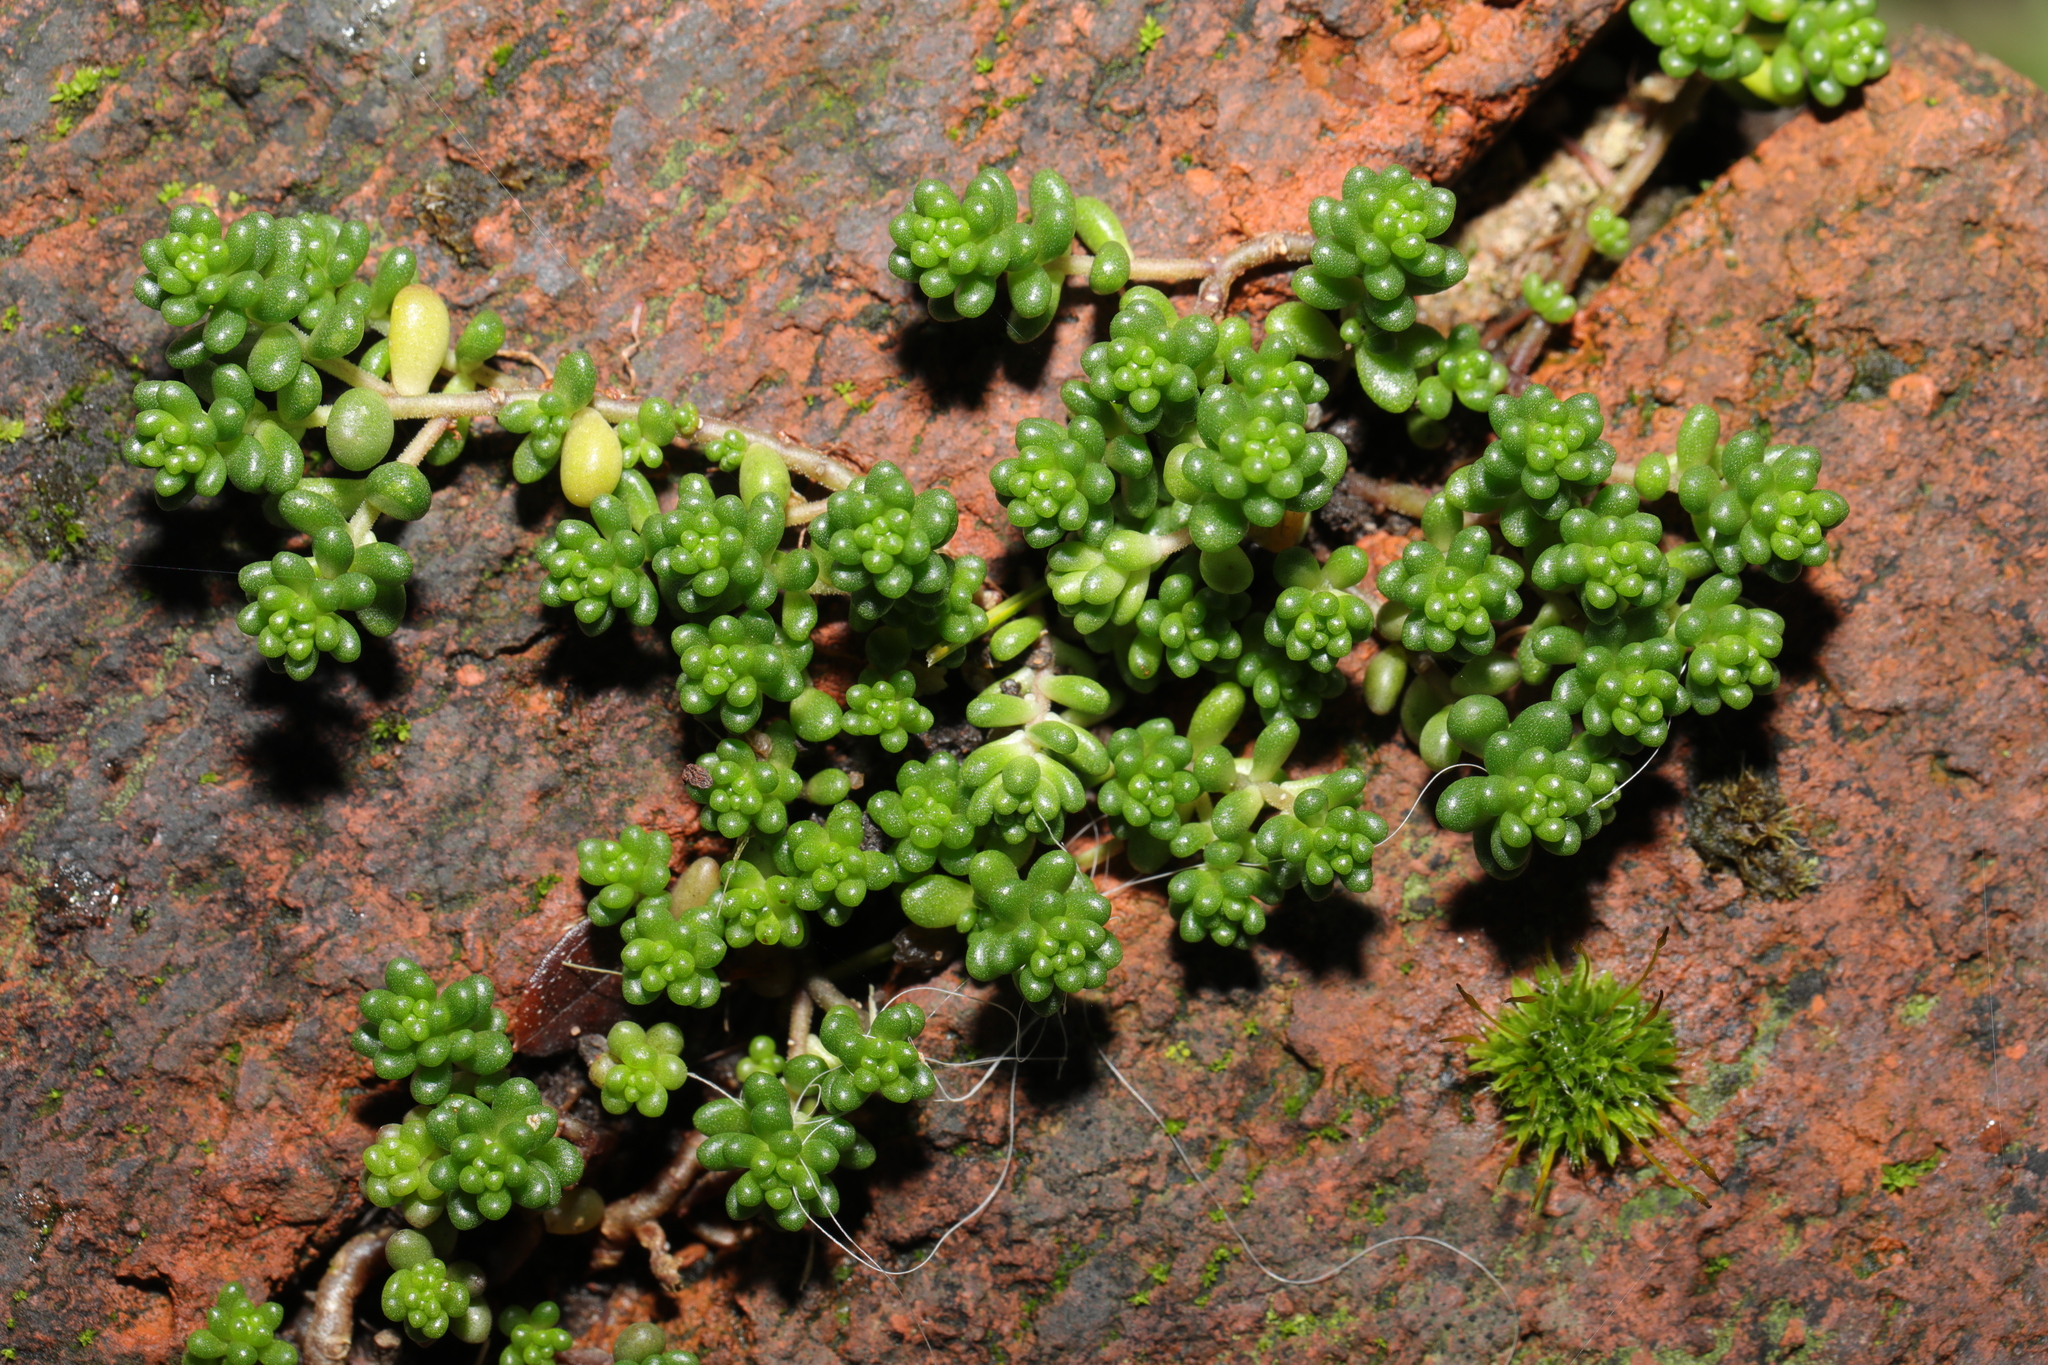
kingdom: Plantae
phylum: Tracheophyta
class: Magnoliopsida
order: Saxifragales
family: Crassulaceae
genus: Sedum
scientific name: Sedum album
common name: White stonecrop
